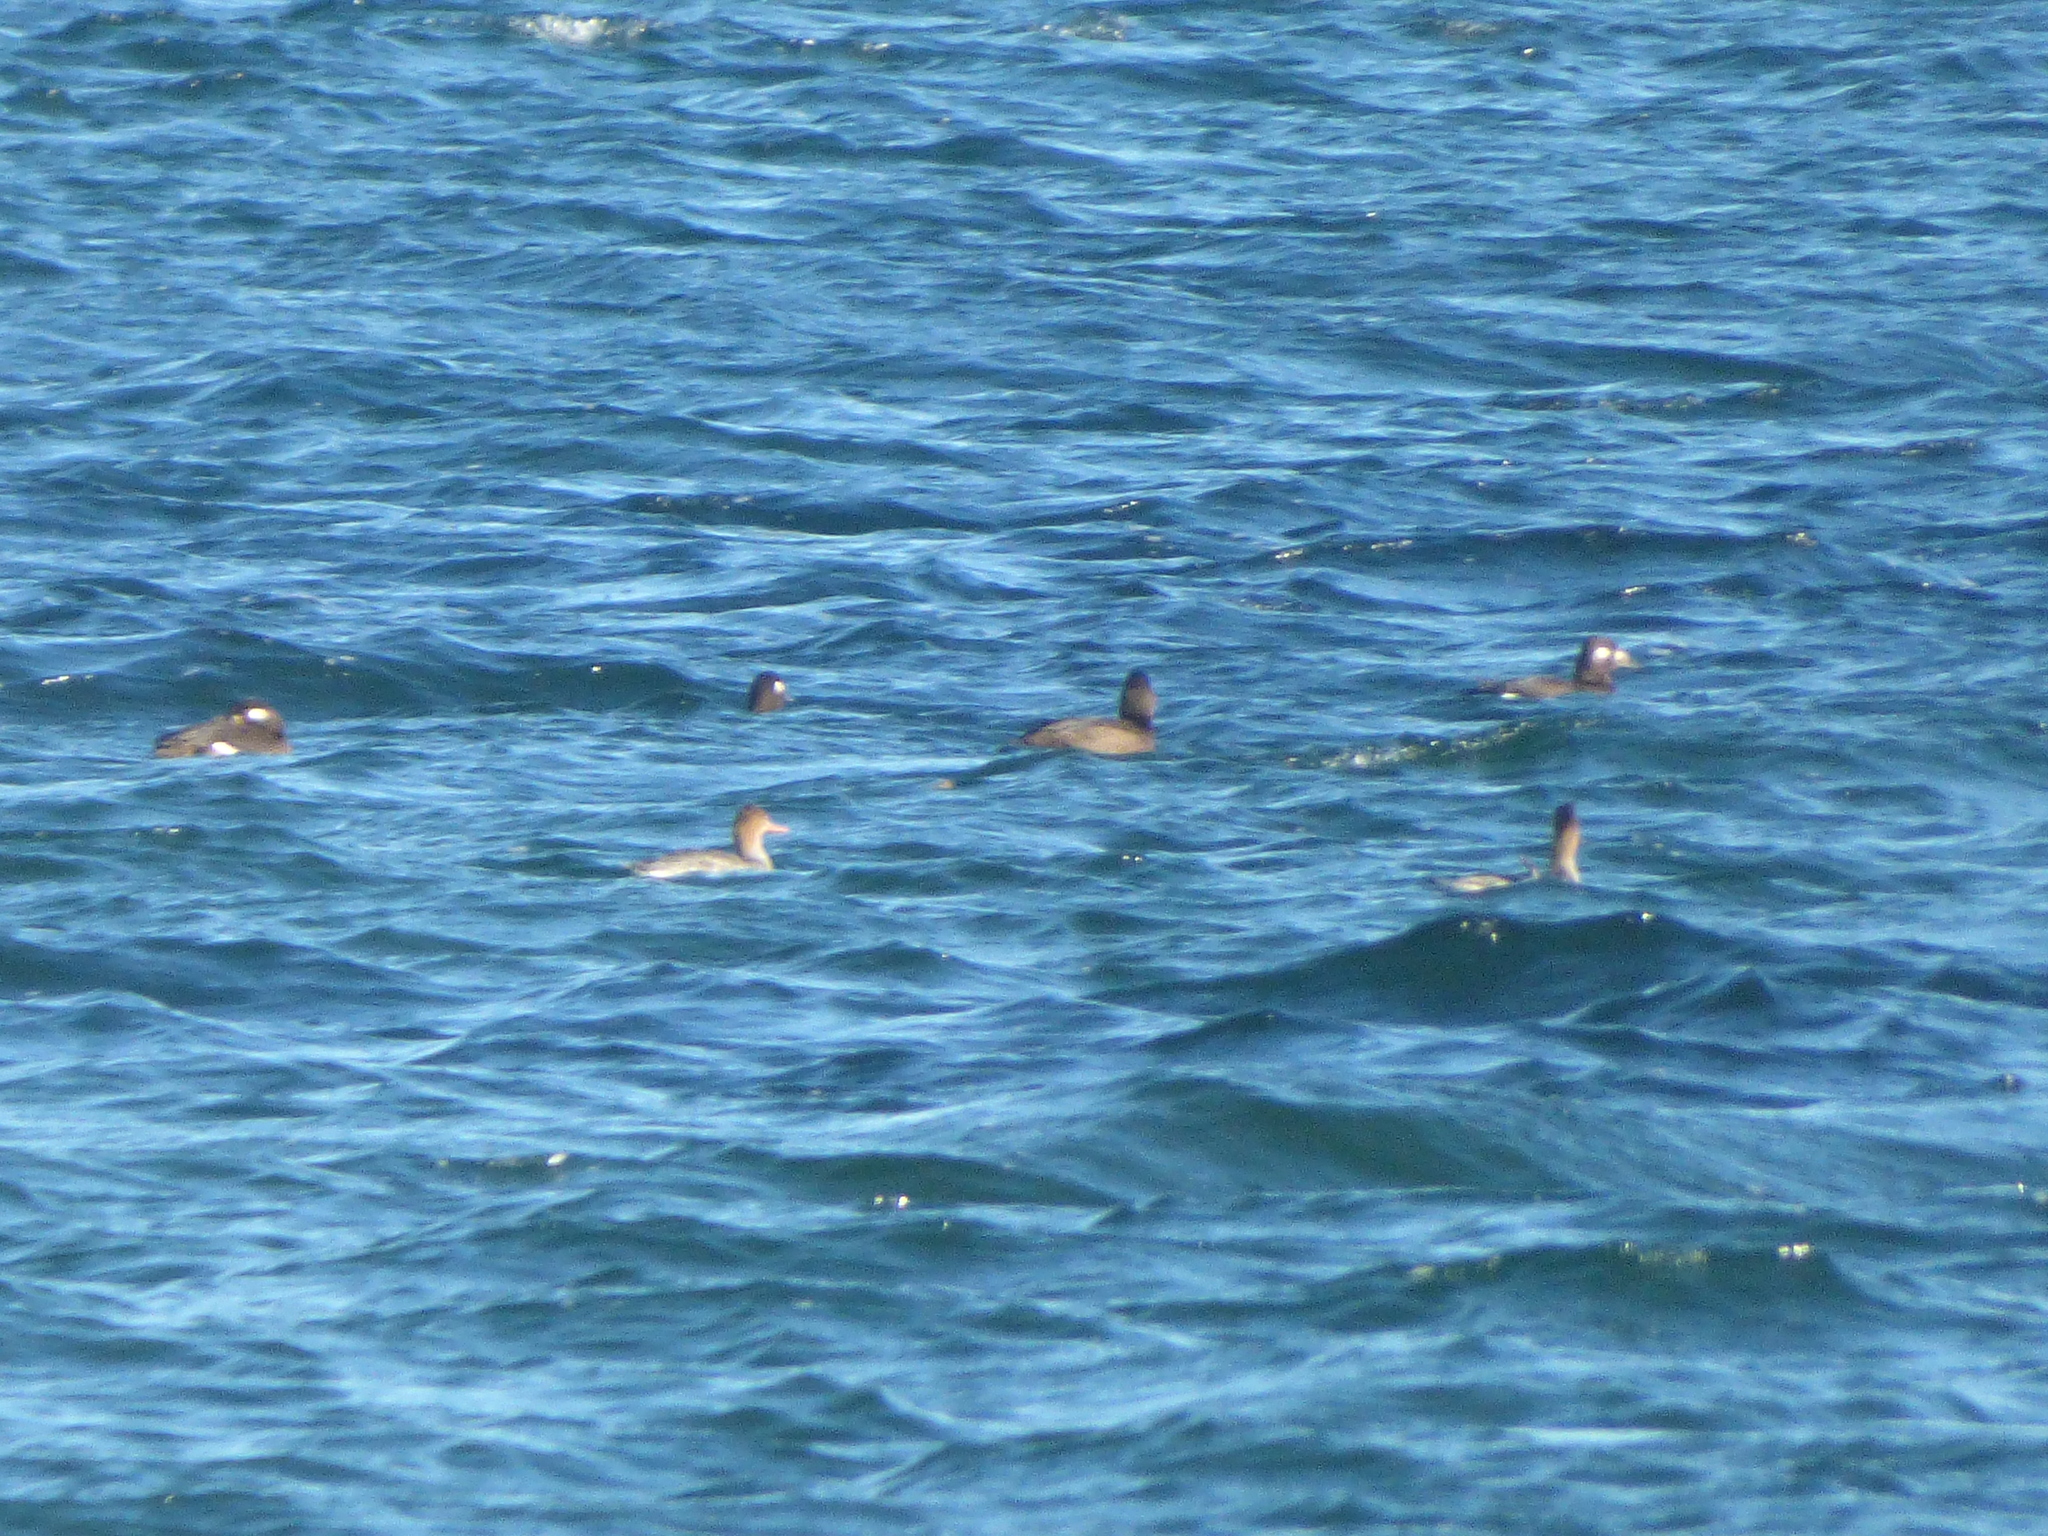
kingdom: Animalia
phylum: Chordata
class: Aves
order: Anseriformes
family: Anatidae
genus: Melanitta
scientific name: Melanitta deglandi
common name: White-winged scoter
